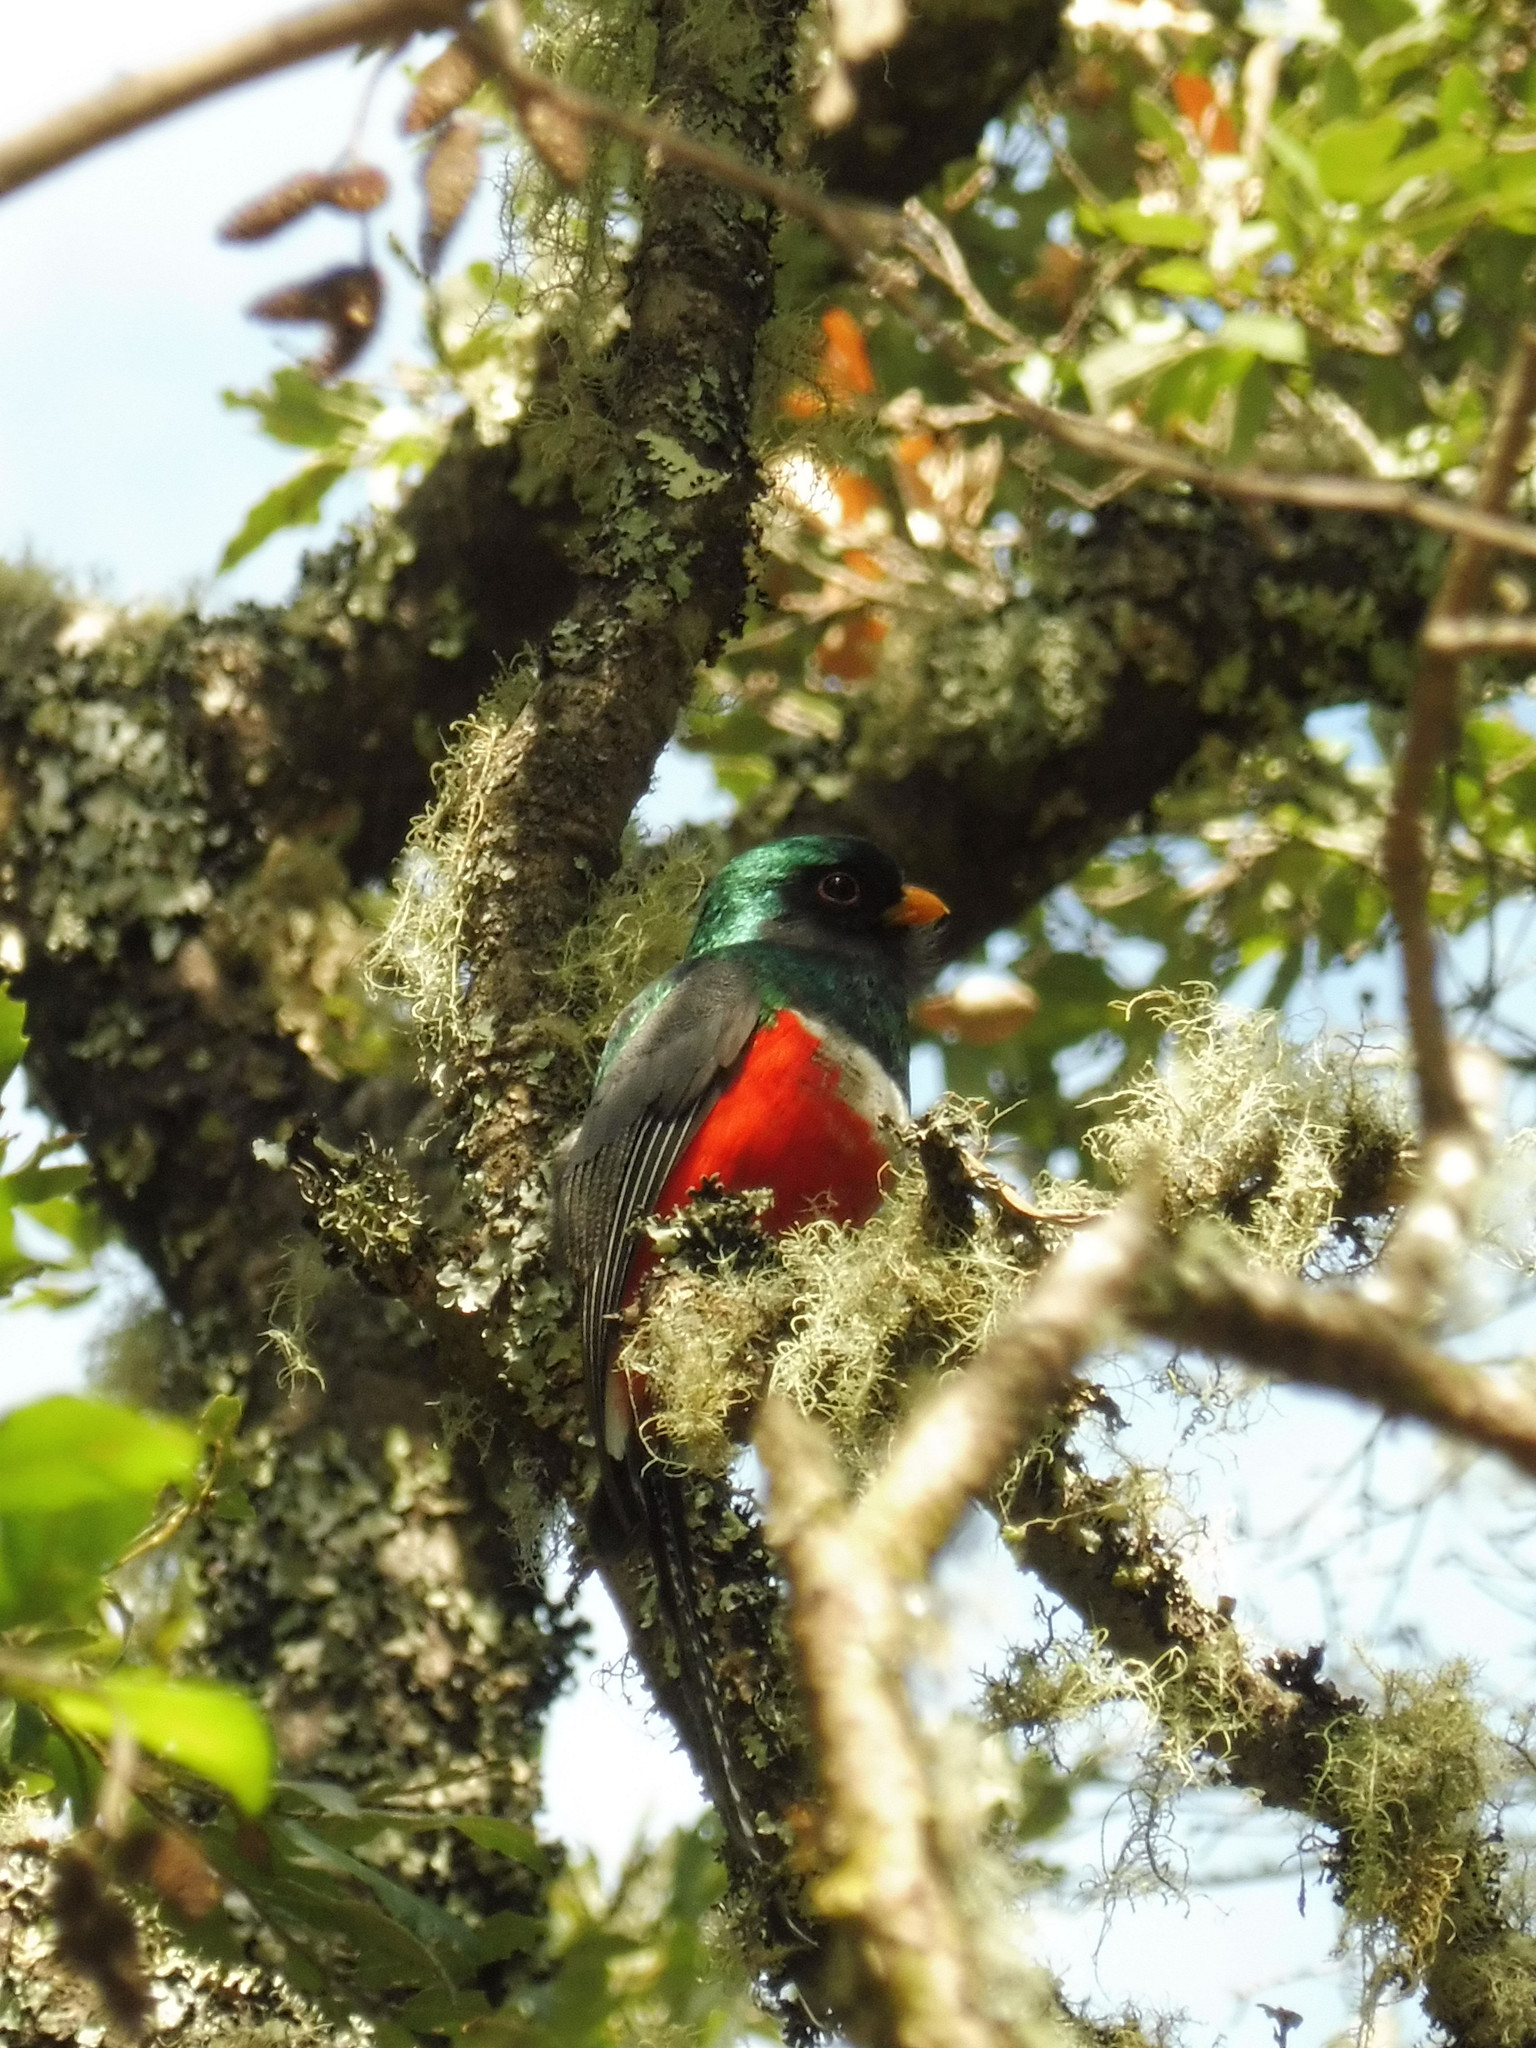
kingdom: Animalia
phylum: Chordata
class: Aves
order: Trogoniformes
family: Trogonidae
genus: Trogon
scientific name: Trogon mexicanus
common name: Mountain trogon
